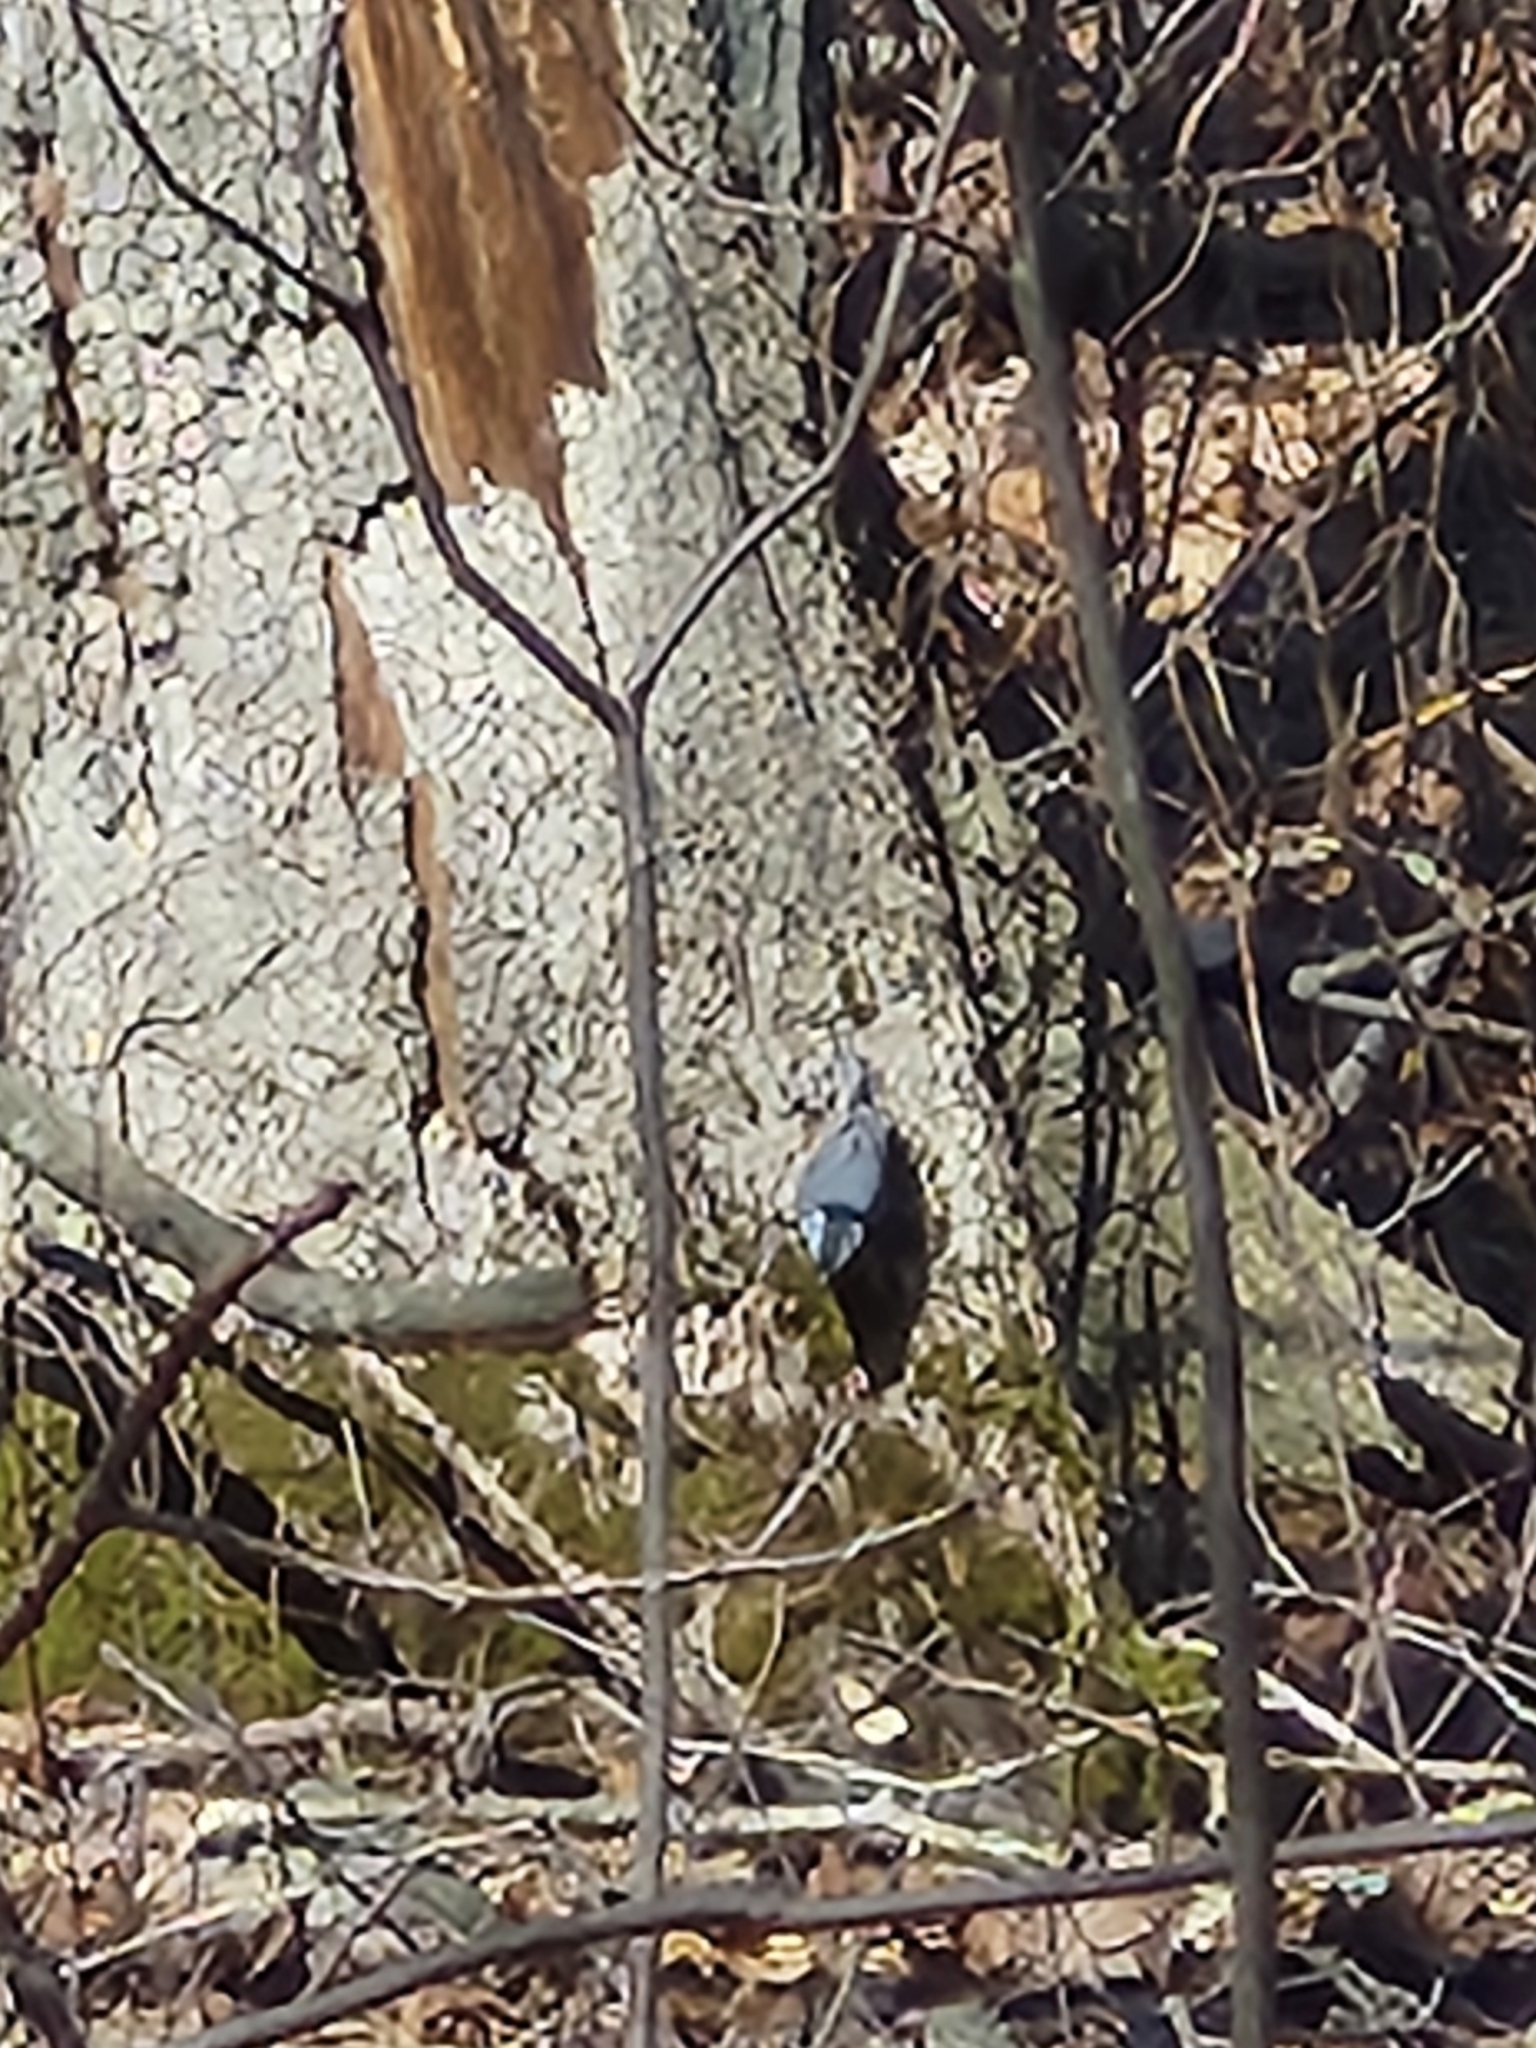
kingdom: Animalia
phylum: Chordata
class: Aves
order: Passeriformes
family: Sittidae
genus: Sitta
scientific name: Sitta carolinensis
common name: White-breasted nuthatch
